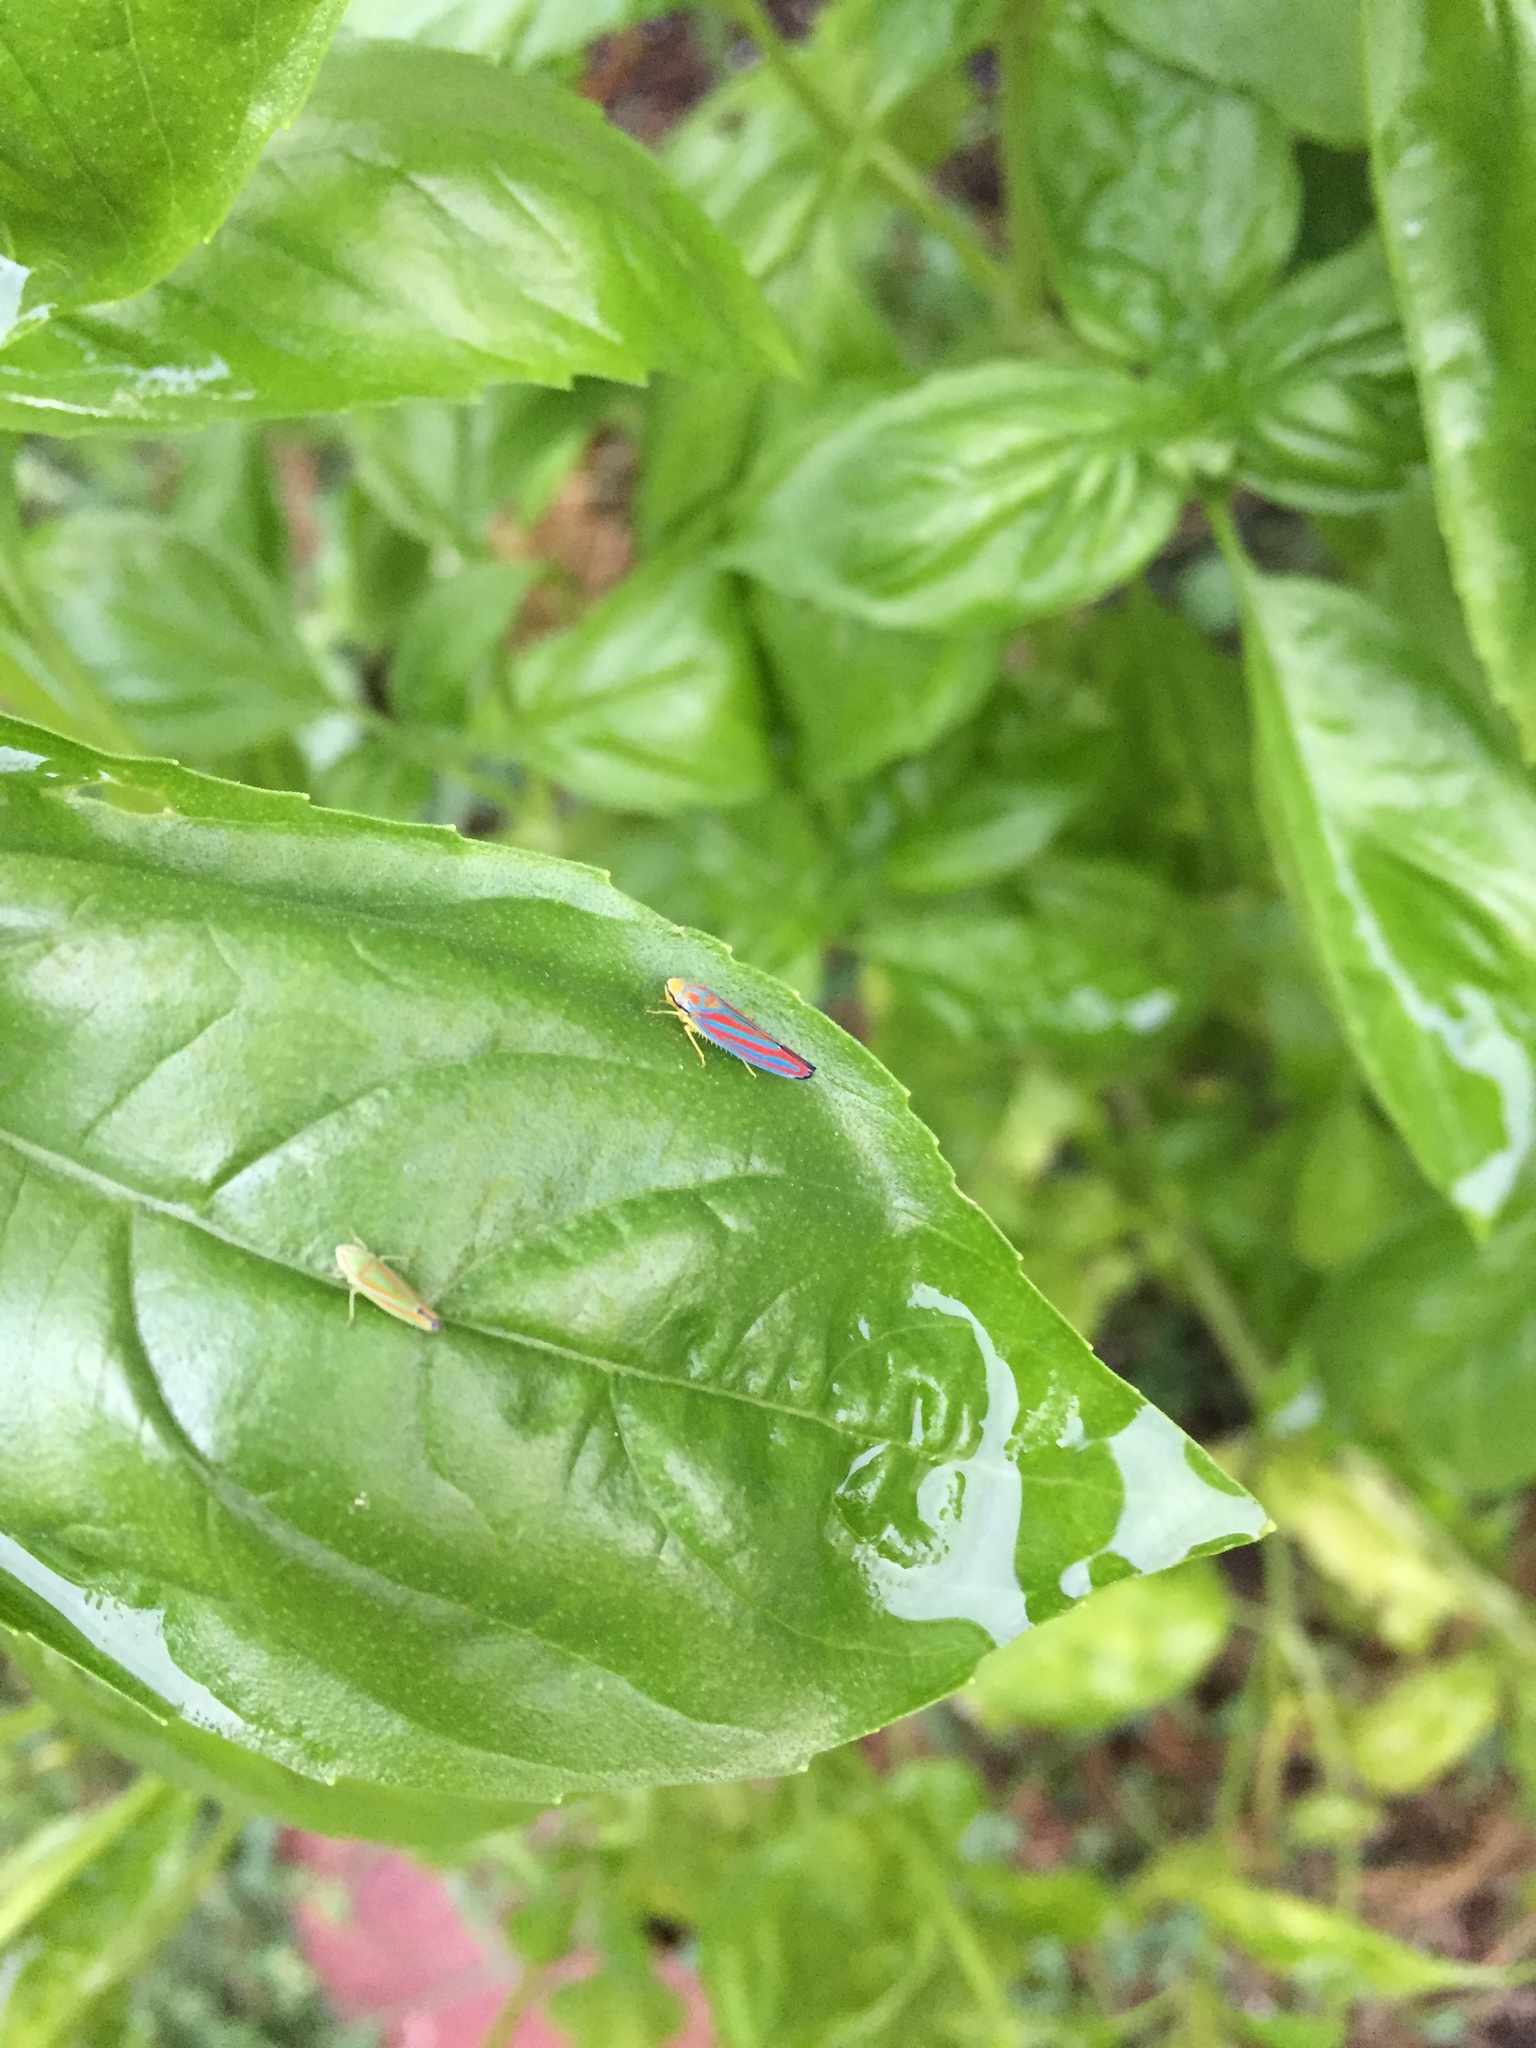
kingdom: Animalia
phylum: Arthropoda
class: Insecta
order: Hemiptera
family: Cicadellidae
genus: Graphocephala
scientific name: Graphocephala coccinea
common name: Candy-striped leafhopper
